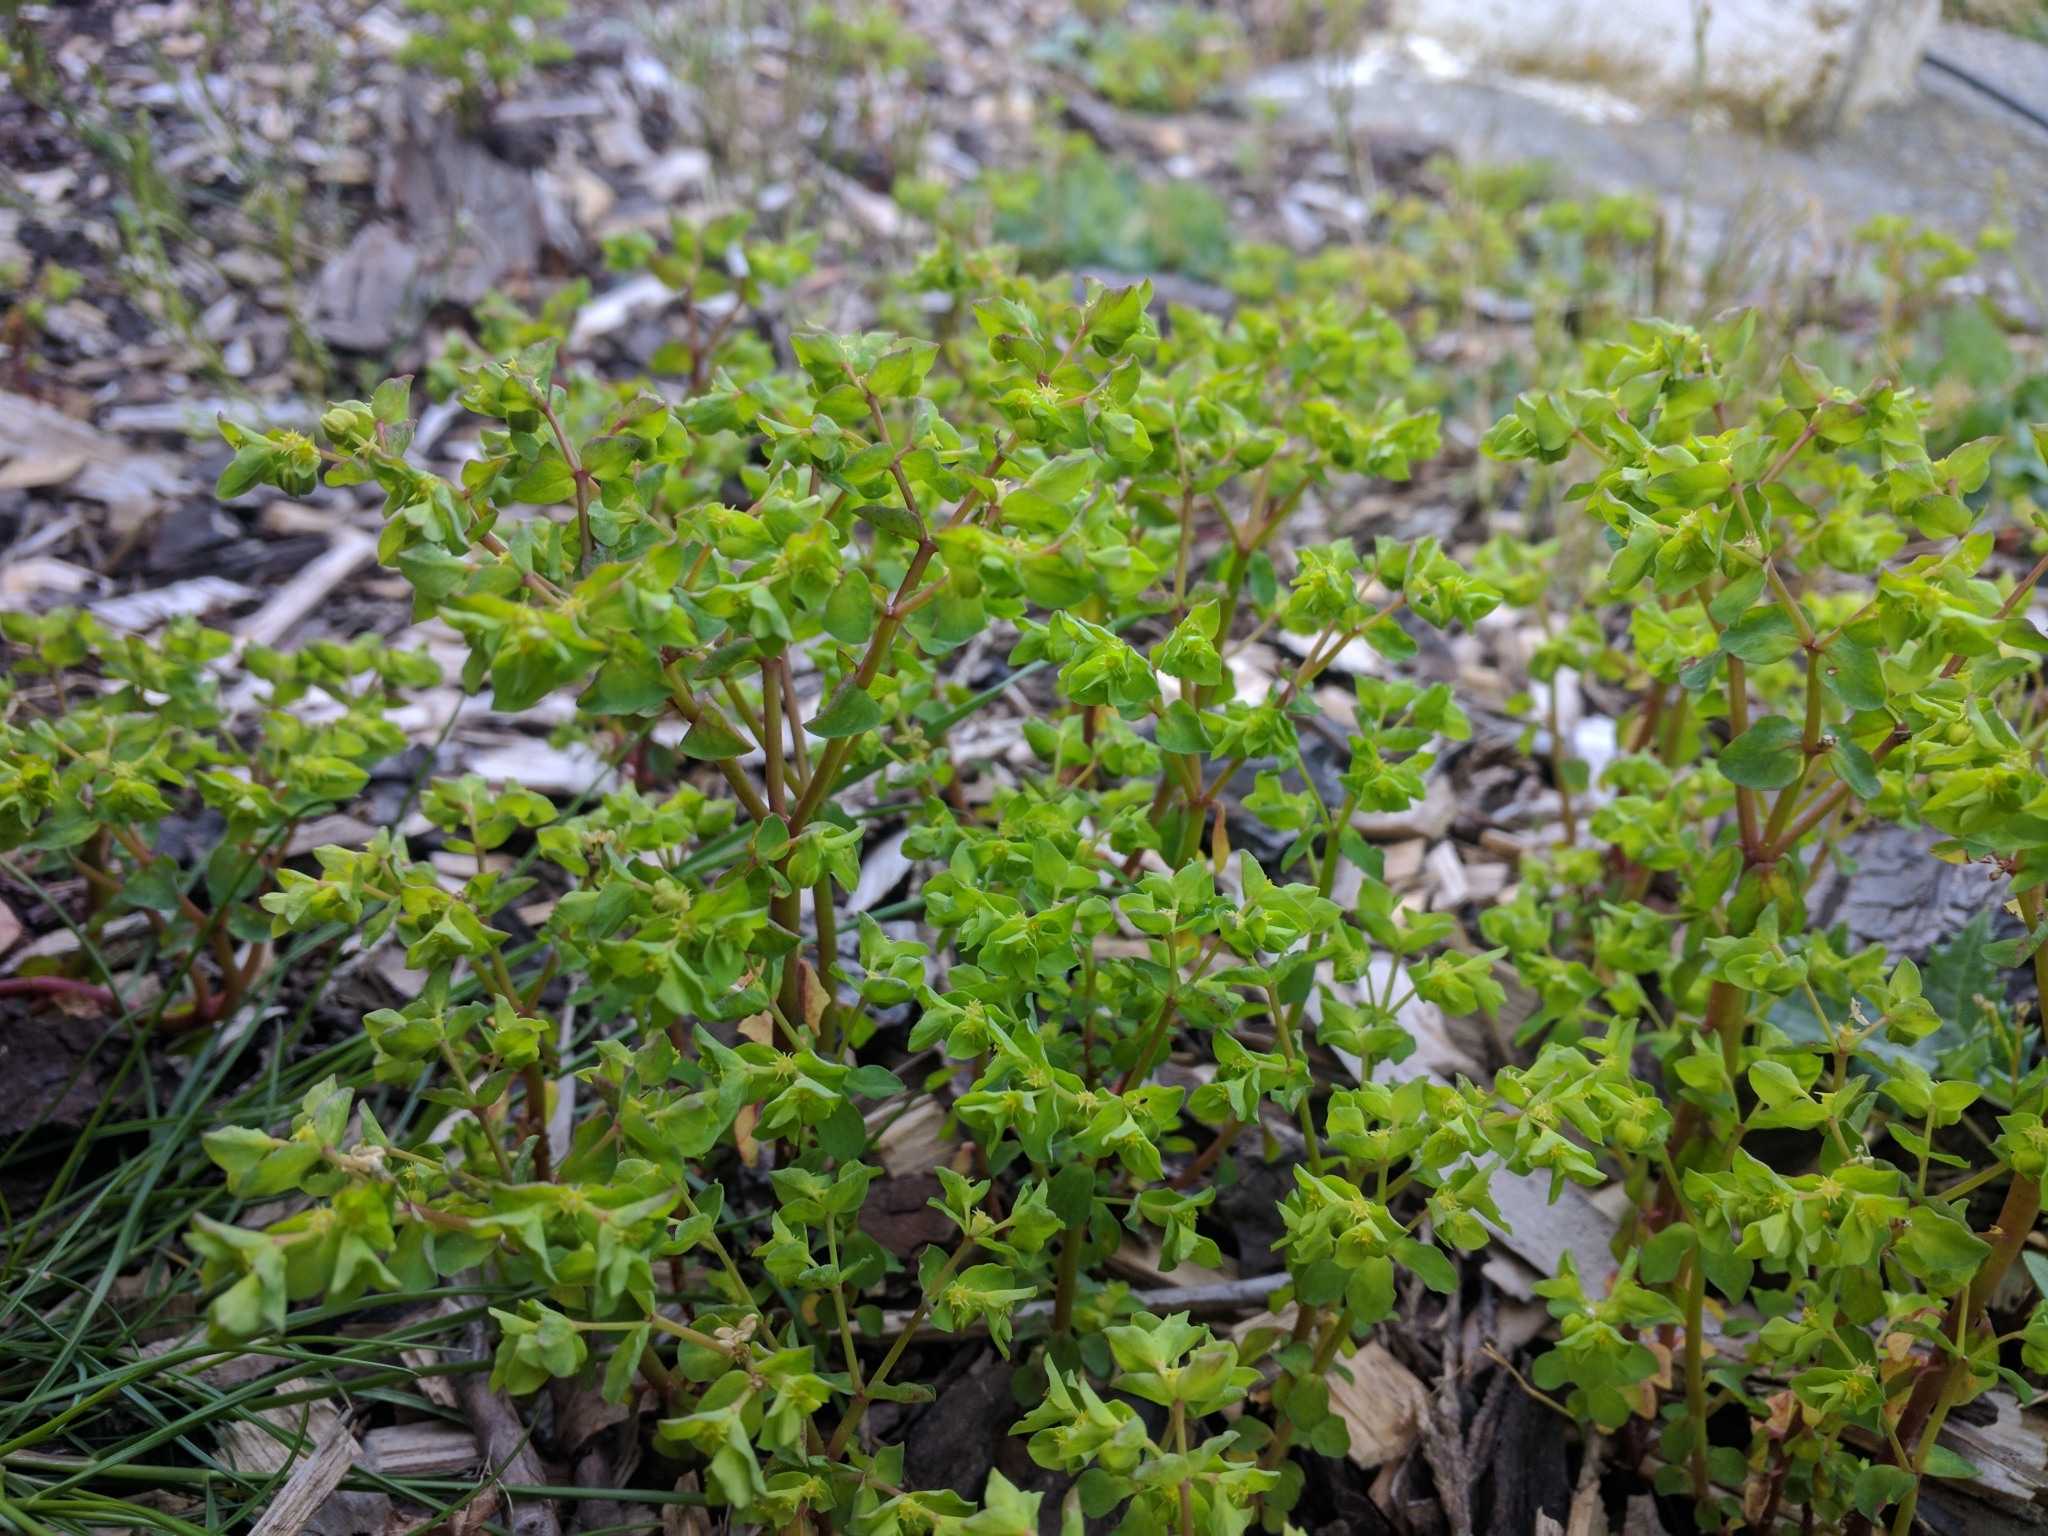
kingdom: Plantae
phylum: Tracheophyta
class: Magnoliopsida
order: Malpighiales
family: Euphorbiaceae
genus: Euphorbia
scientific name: Euphorbia peplus
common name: Petty spurge
